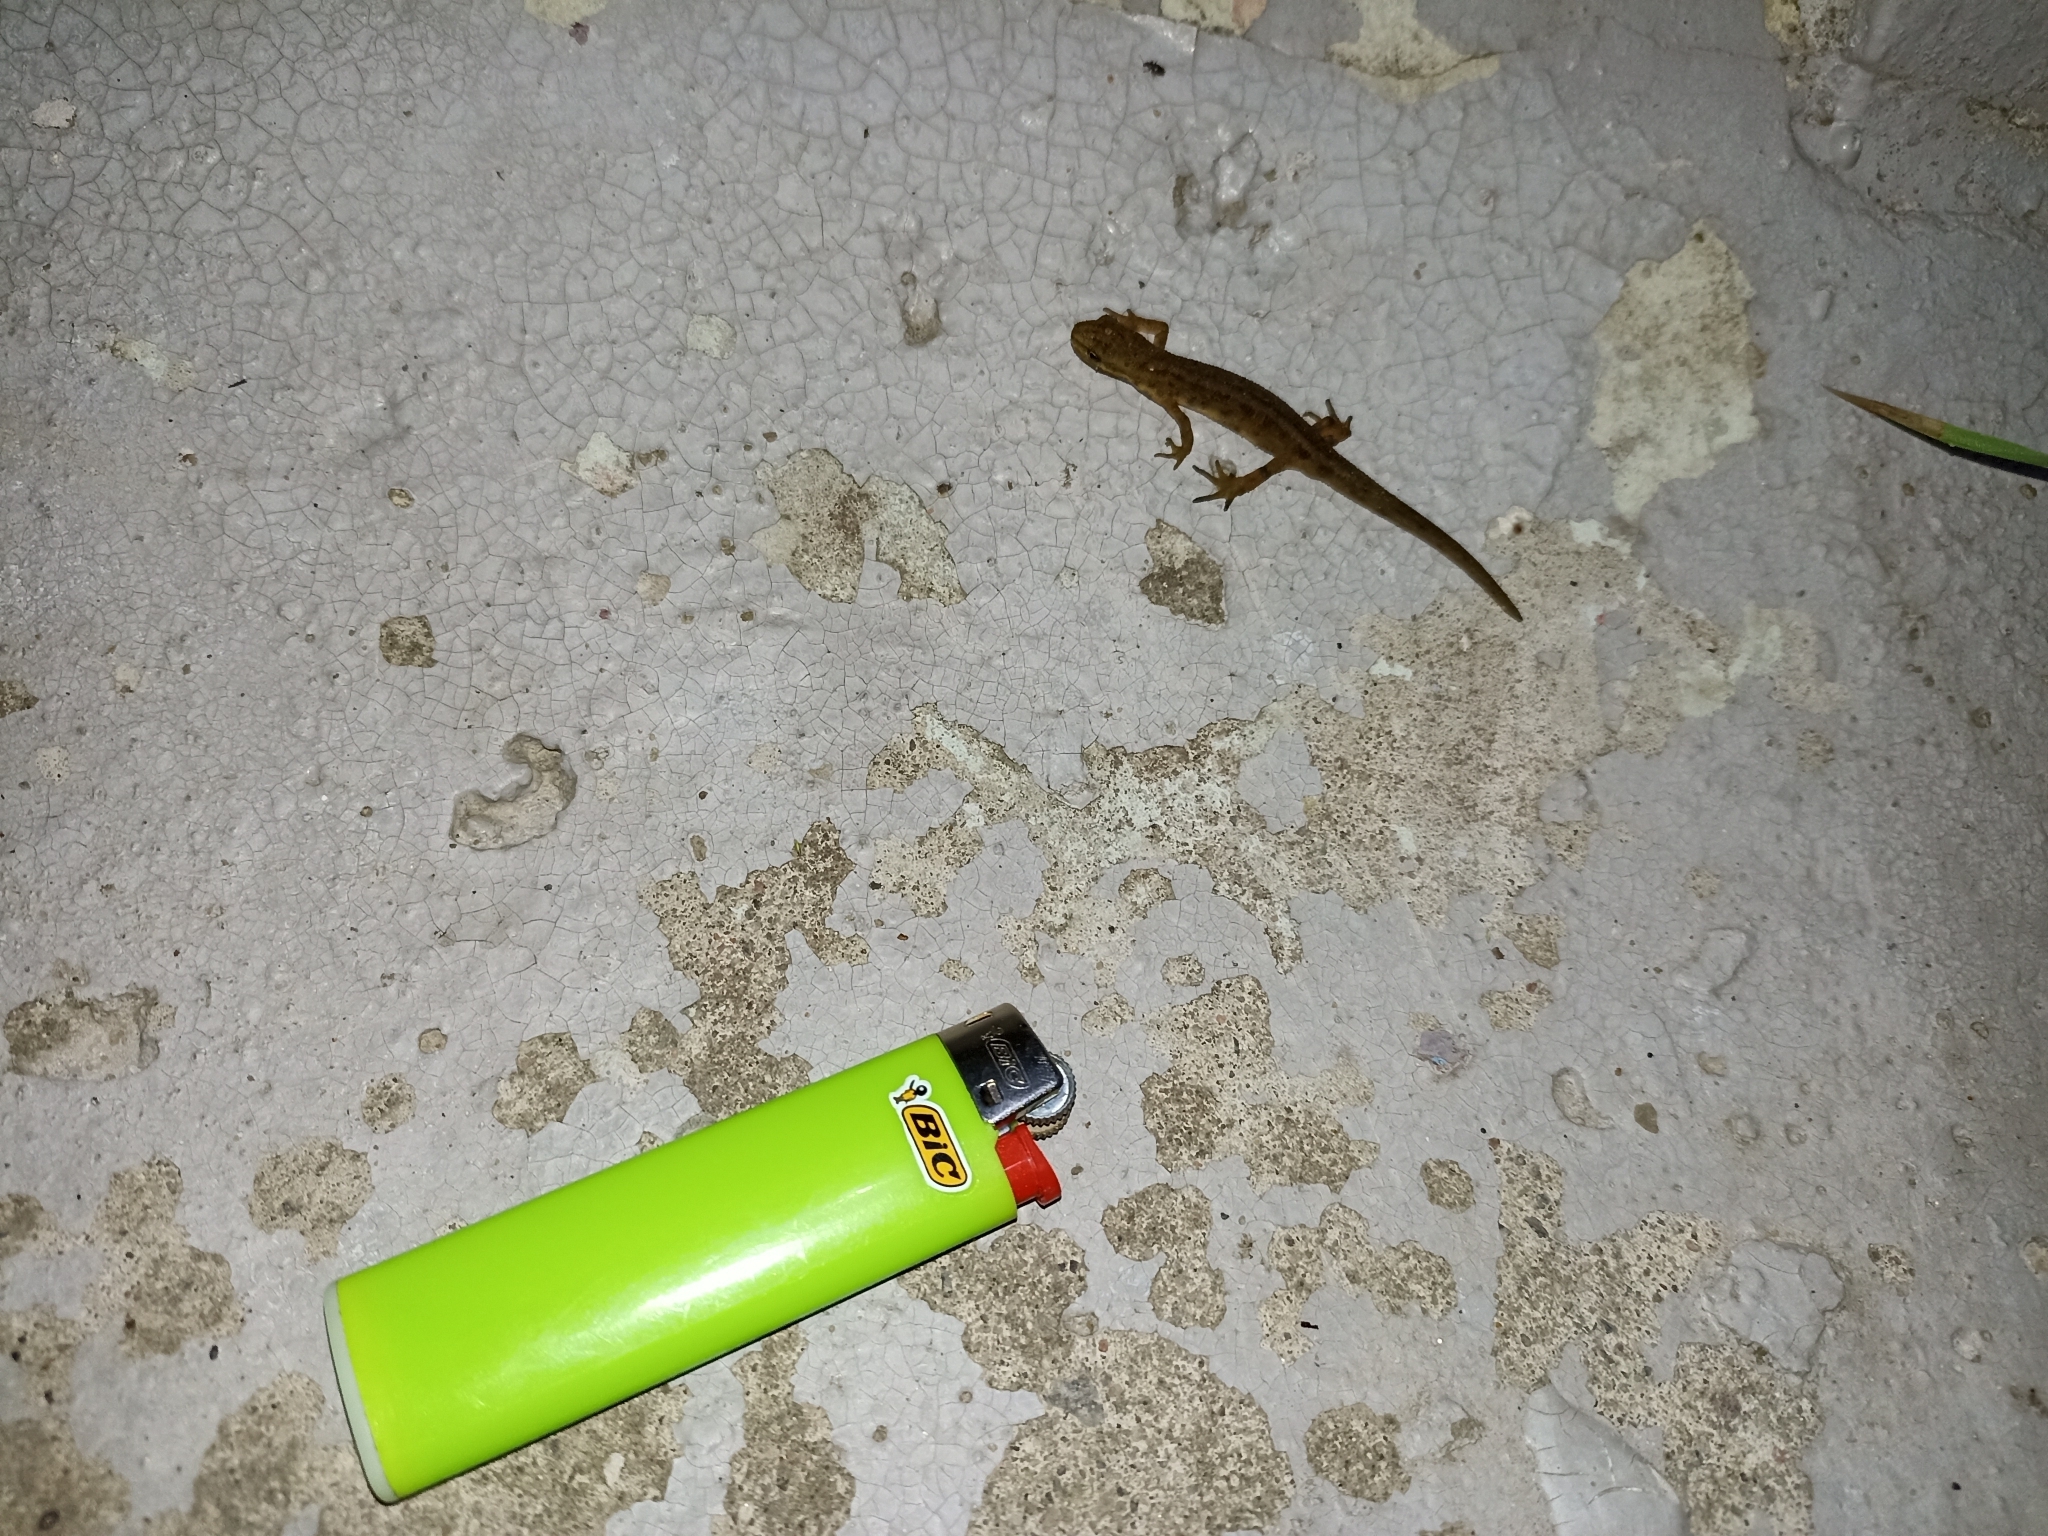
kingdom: Animalia
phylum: Chordata
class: Amphibia
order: Caudata
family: Salamandridae
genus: Lissotriton
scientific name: Lissotriton vulgaris
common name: Smooth newt
